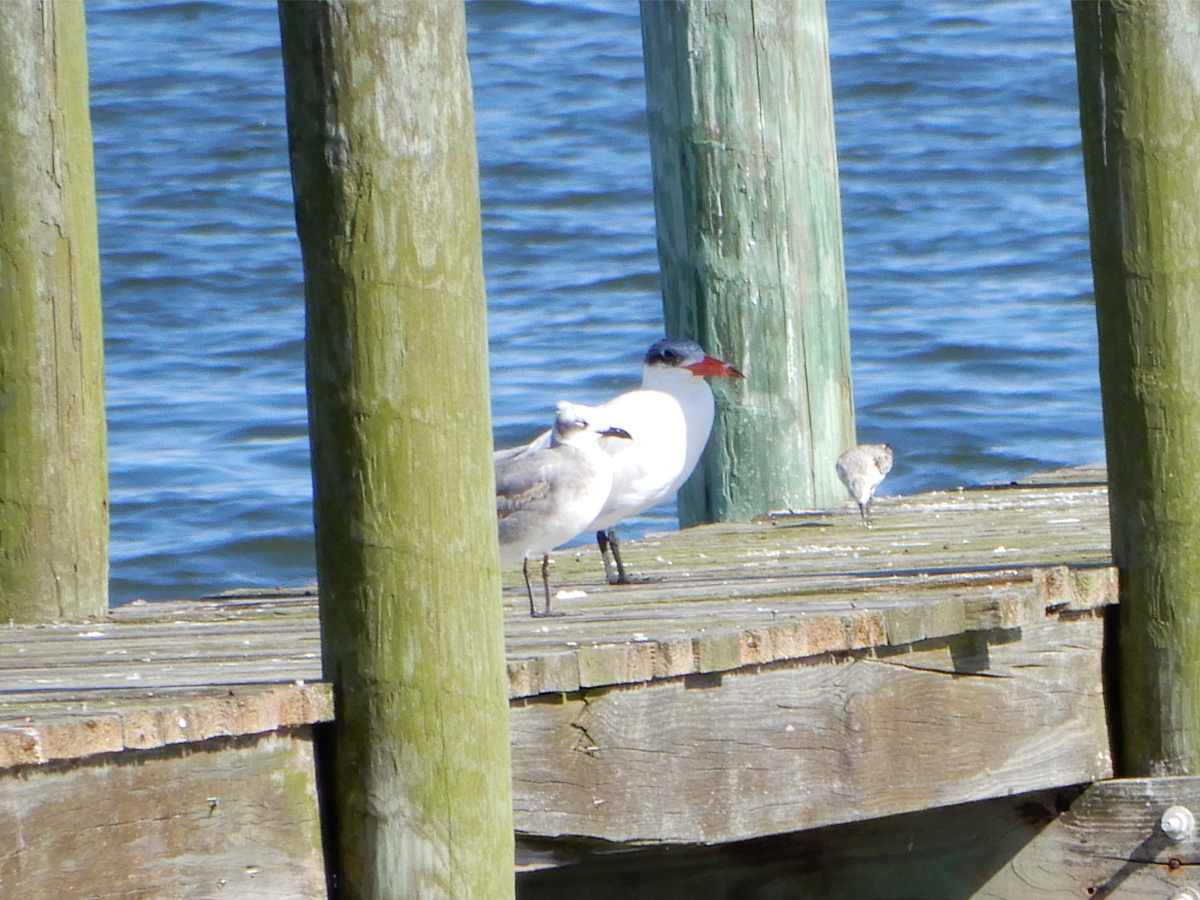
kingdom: Animalia
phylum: Chordata
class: Aves
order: Charadriiformes
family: Laridae
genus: Hydroprogne
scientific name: Hydroprogne caspia
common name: Caspian tern
